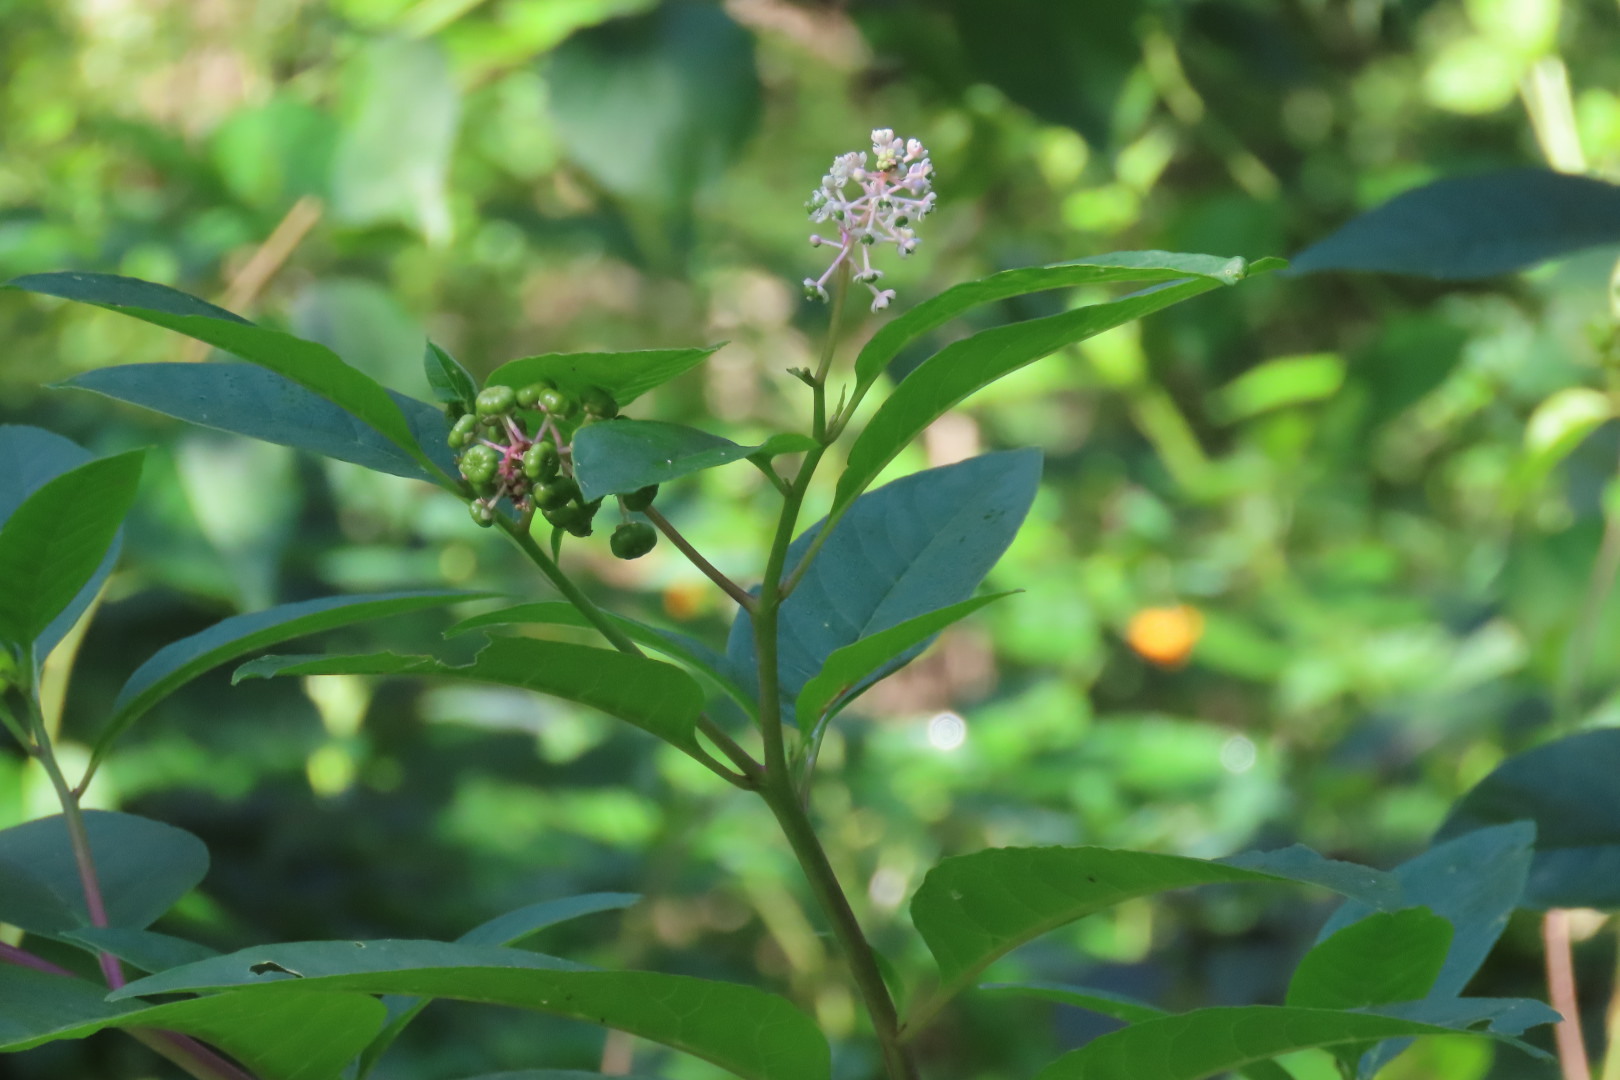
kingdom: Plantae
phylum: Tracheophyta
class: Magnoliopsida
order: Caryophyllales
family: Phytolaccaceae
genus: Phytolacca
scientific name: Phytolacca americana
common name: American pokeweed
